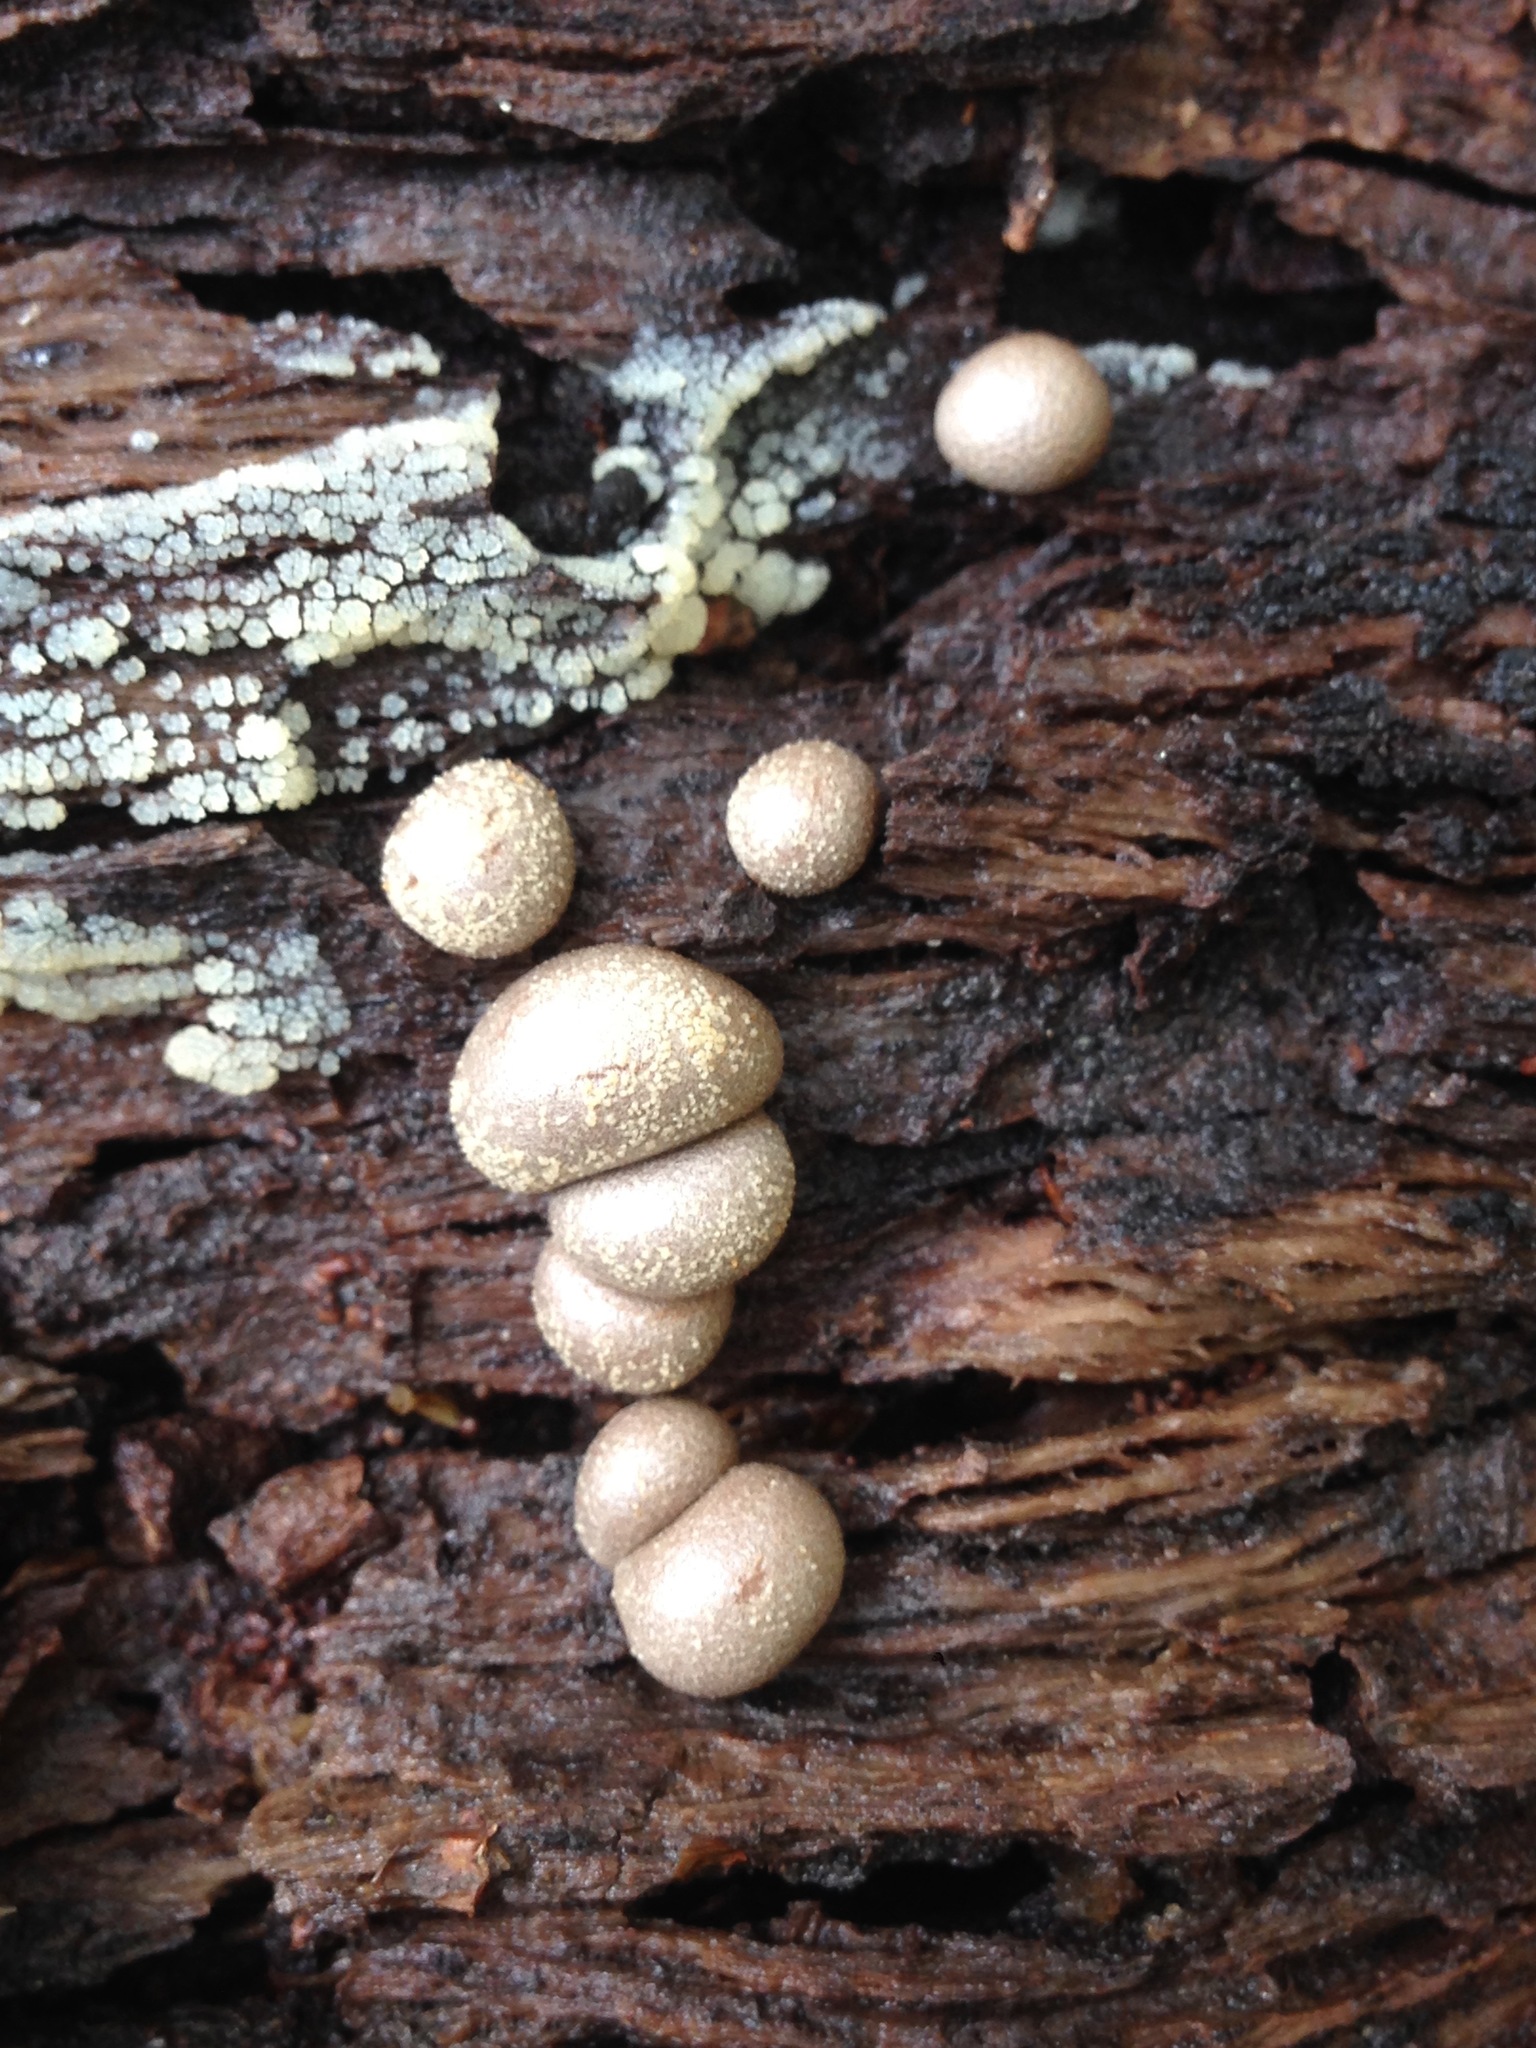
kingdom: Protozoa
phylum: Mycetozoa
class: Myxomycetes
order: Cribrariales
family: Tubiferaceae
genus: Lycogala
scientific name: Lycogala epidendrum
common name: Wolf's milk
